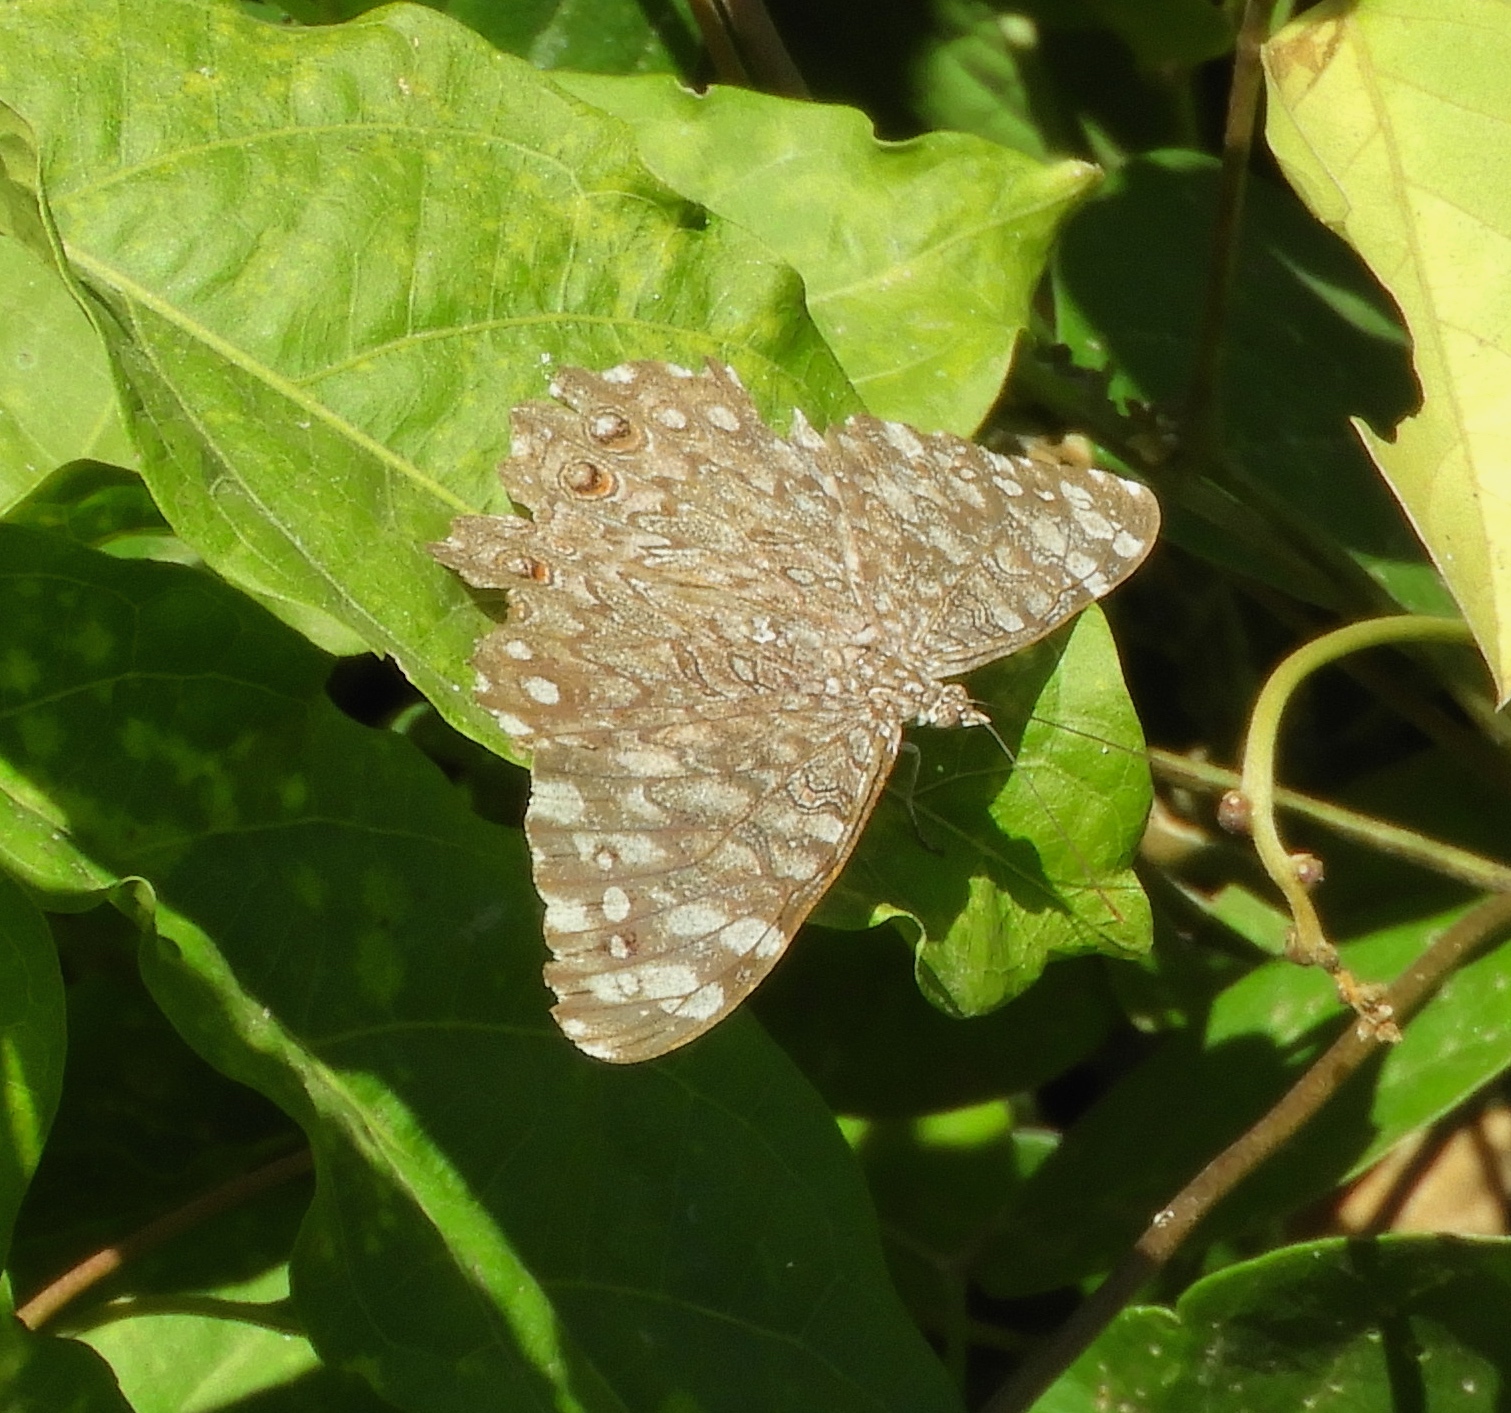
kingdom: Animalia
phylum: Arthropoda
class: Insecta
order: Lepidoptera
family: Nymphalidae
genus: Hamadryas
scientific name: Hamadryas
